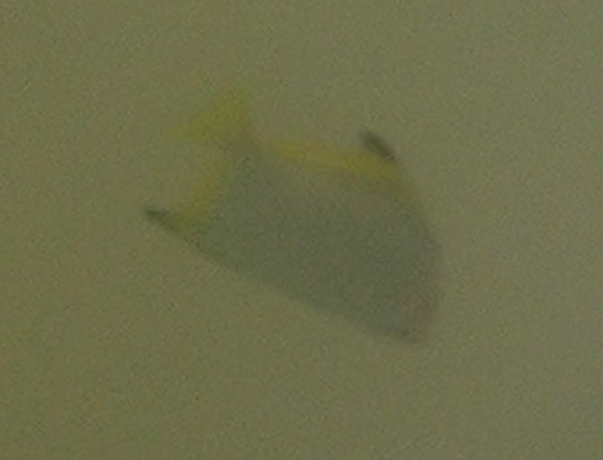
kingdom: Animalia
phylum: Chordata
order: Perciformes
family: Monodactylidae
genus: Monodactylus
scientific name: Monodactylus argenteus
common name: Silver moony
